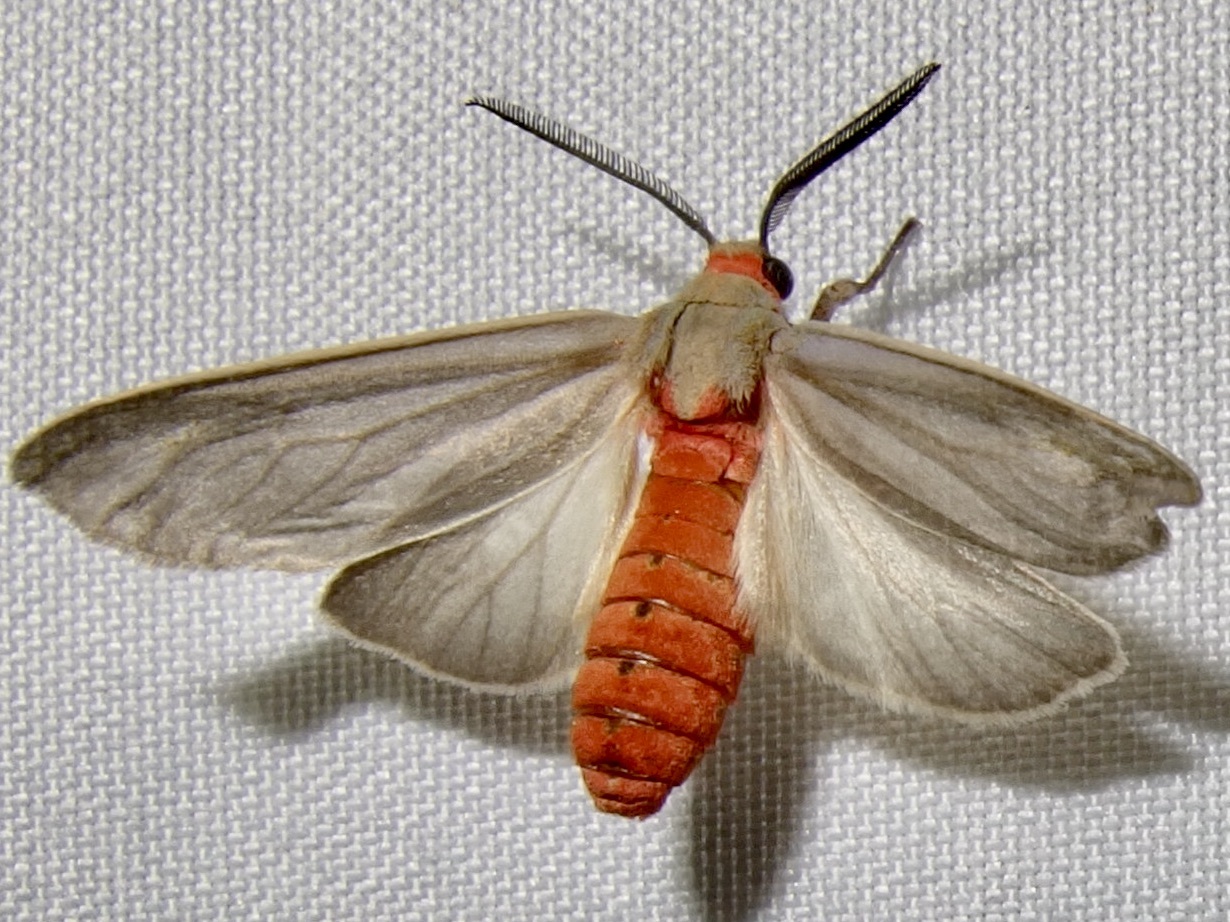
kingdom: Animalia
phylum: Arthropoda
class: Insecta
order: Lepidoptera
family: Erebidae
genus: Pygarctia
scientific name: Pygarctia murina
